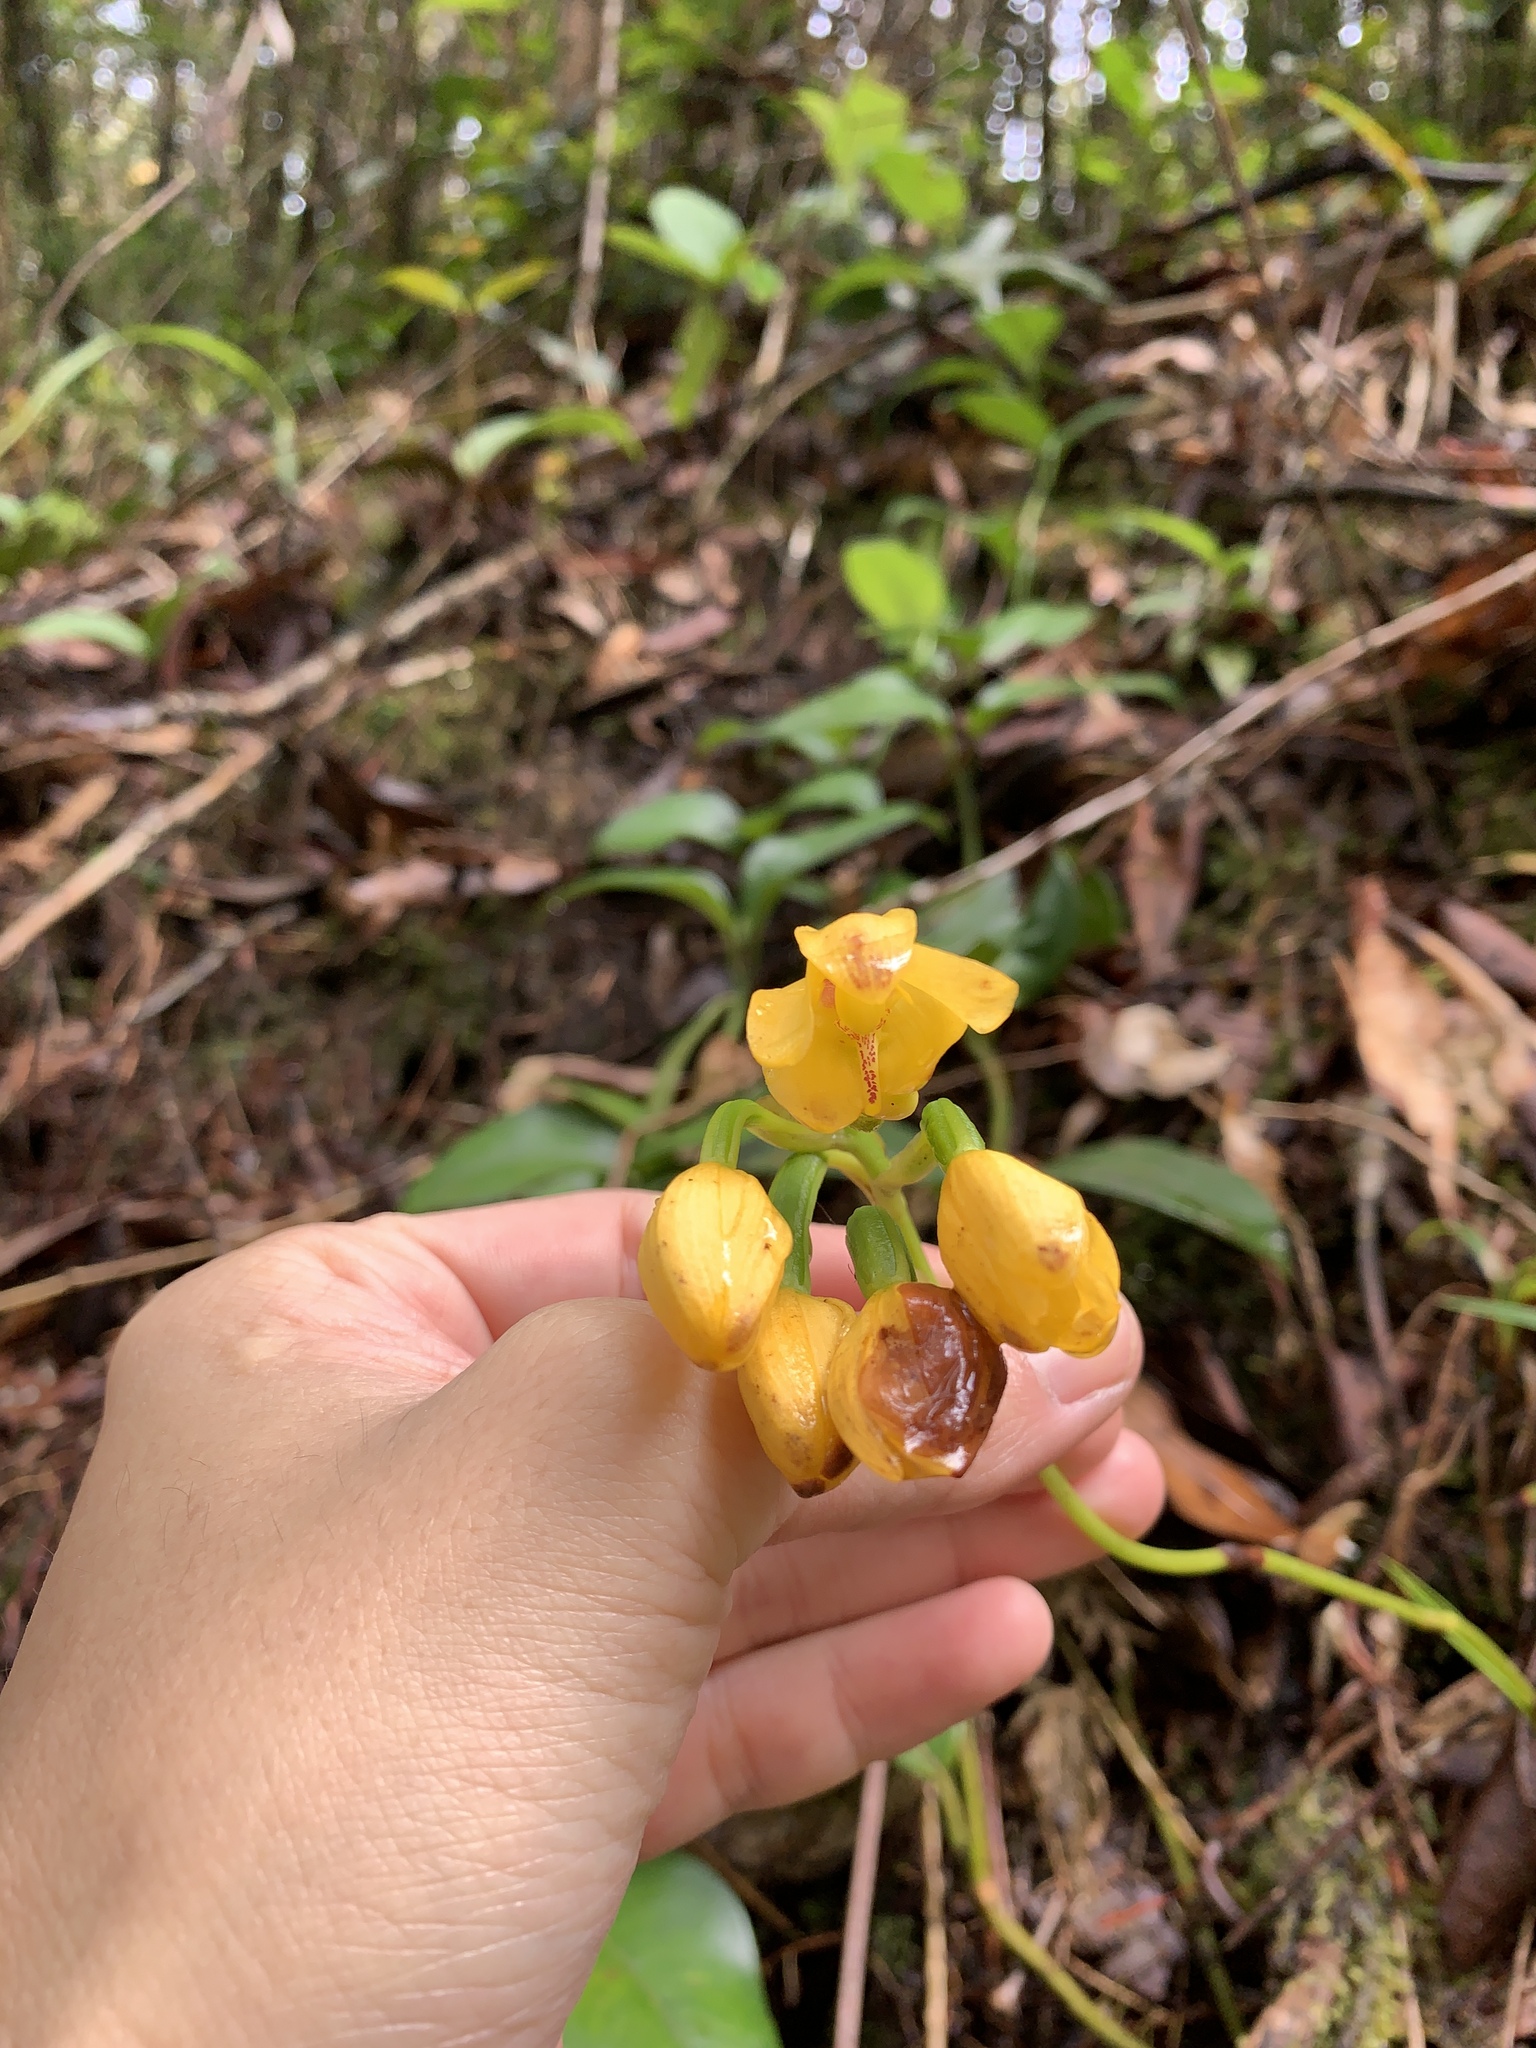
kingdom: Plantae
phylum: Tracheophyta
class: Liliopsida
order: Asparagales
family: Orchidaceae
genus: Spathoglottis
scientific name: Spathoglottis aurea
